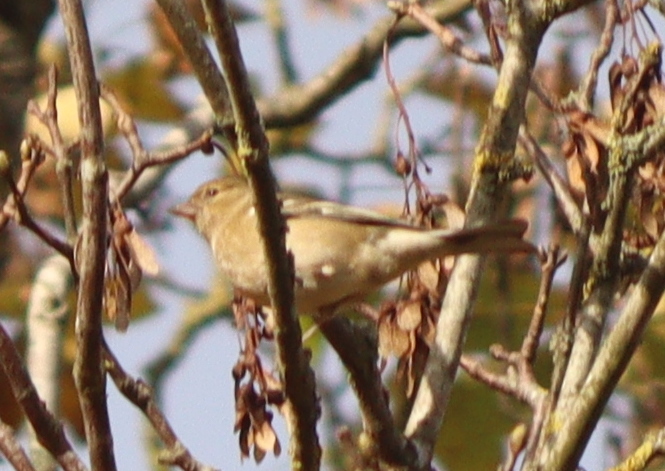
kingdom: Animalia
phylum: Chordata
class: Aves
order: Passeriformes
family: Fringillidae
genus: Fringilla
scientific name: Fringilla coelebs
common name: Common chaffinch
